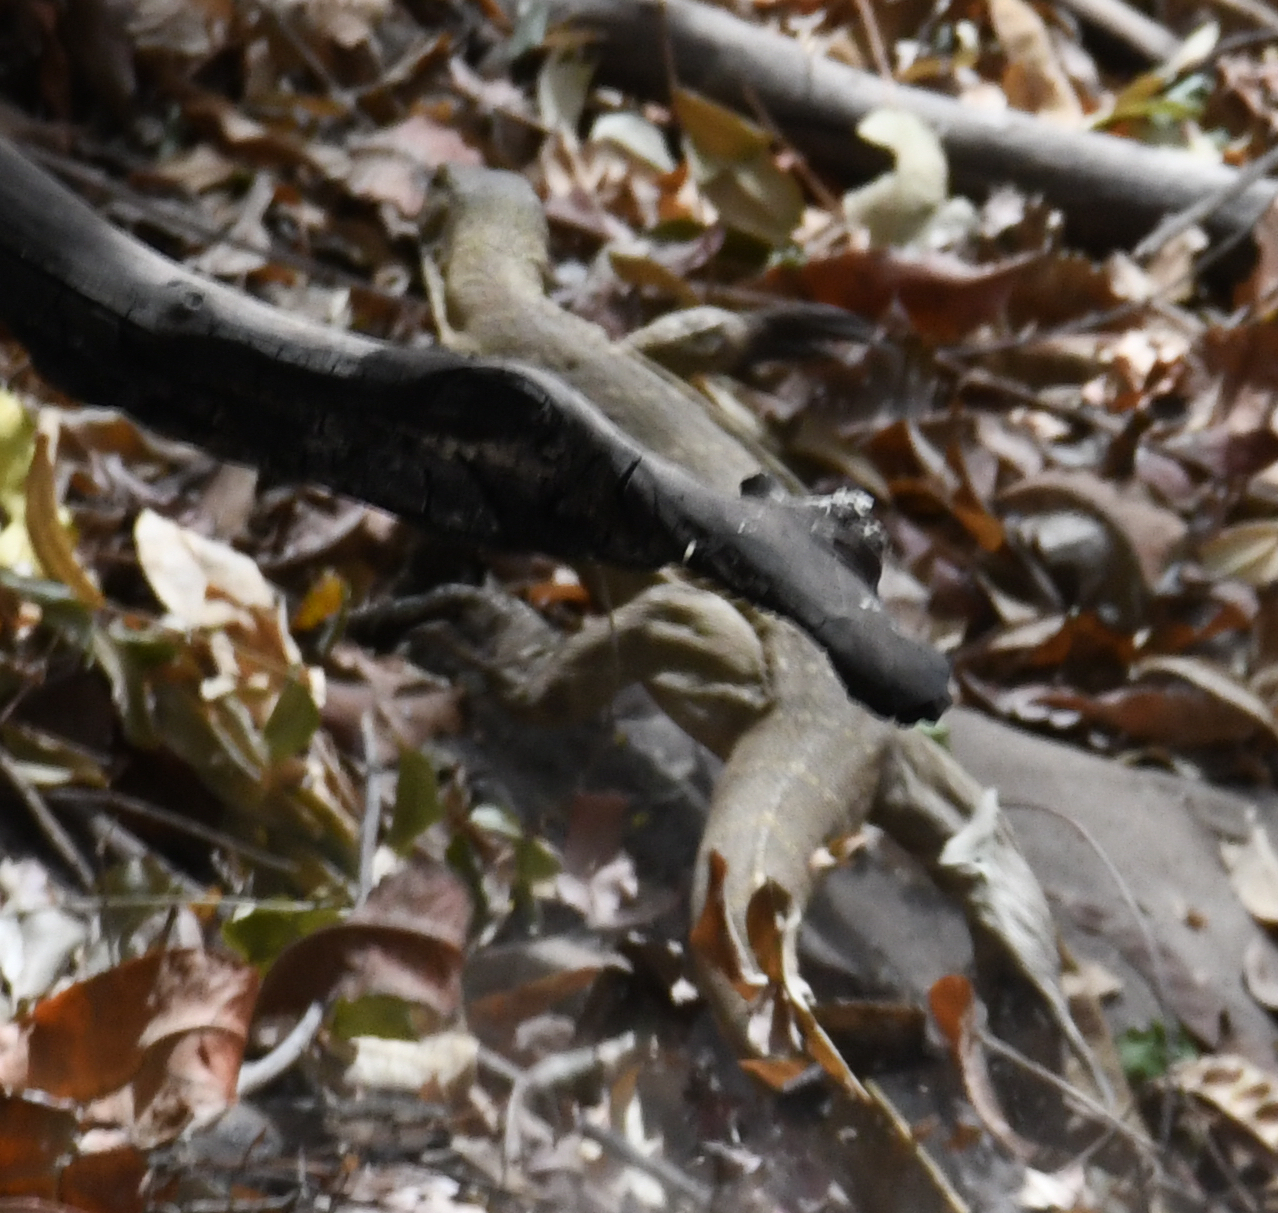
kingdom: Animalia
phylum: Chordata
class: Squamata
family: Varanidae
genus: Varanus
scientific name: Varanus niloticus
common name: Nile monitor
